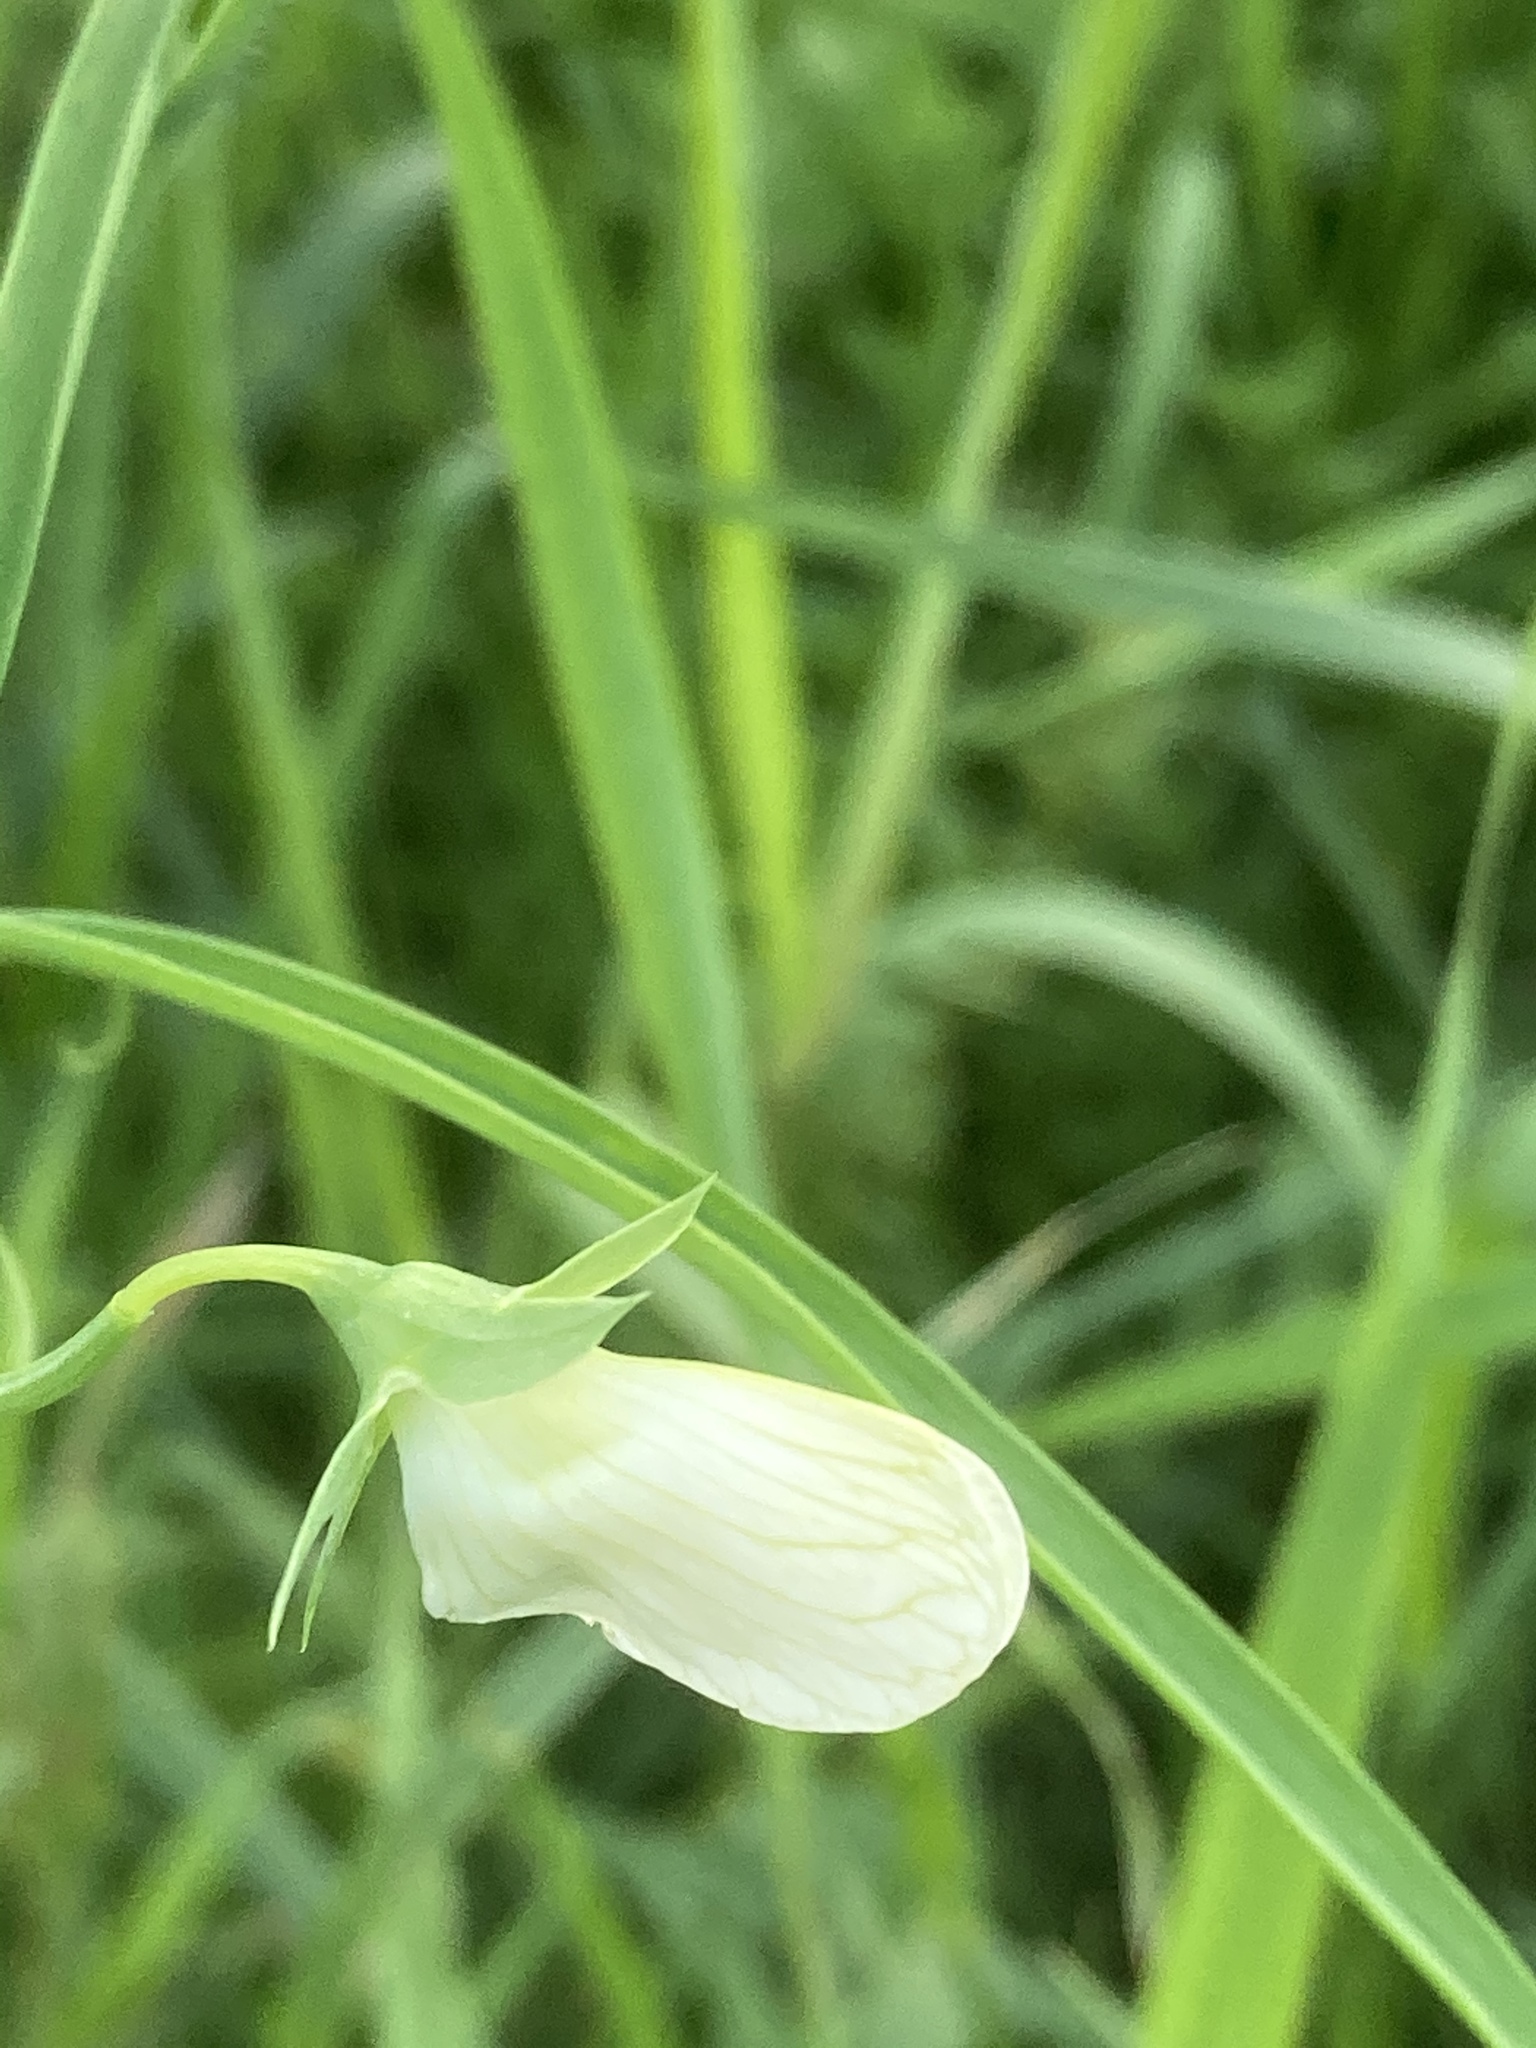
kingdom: Plantae
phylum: Tracheophyta
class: Magnoliopsida
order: Fabales
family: Fabaceae
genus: Lathyrus
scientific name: Lathyrus oleraceus
